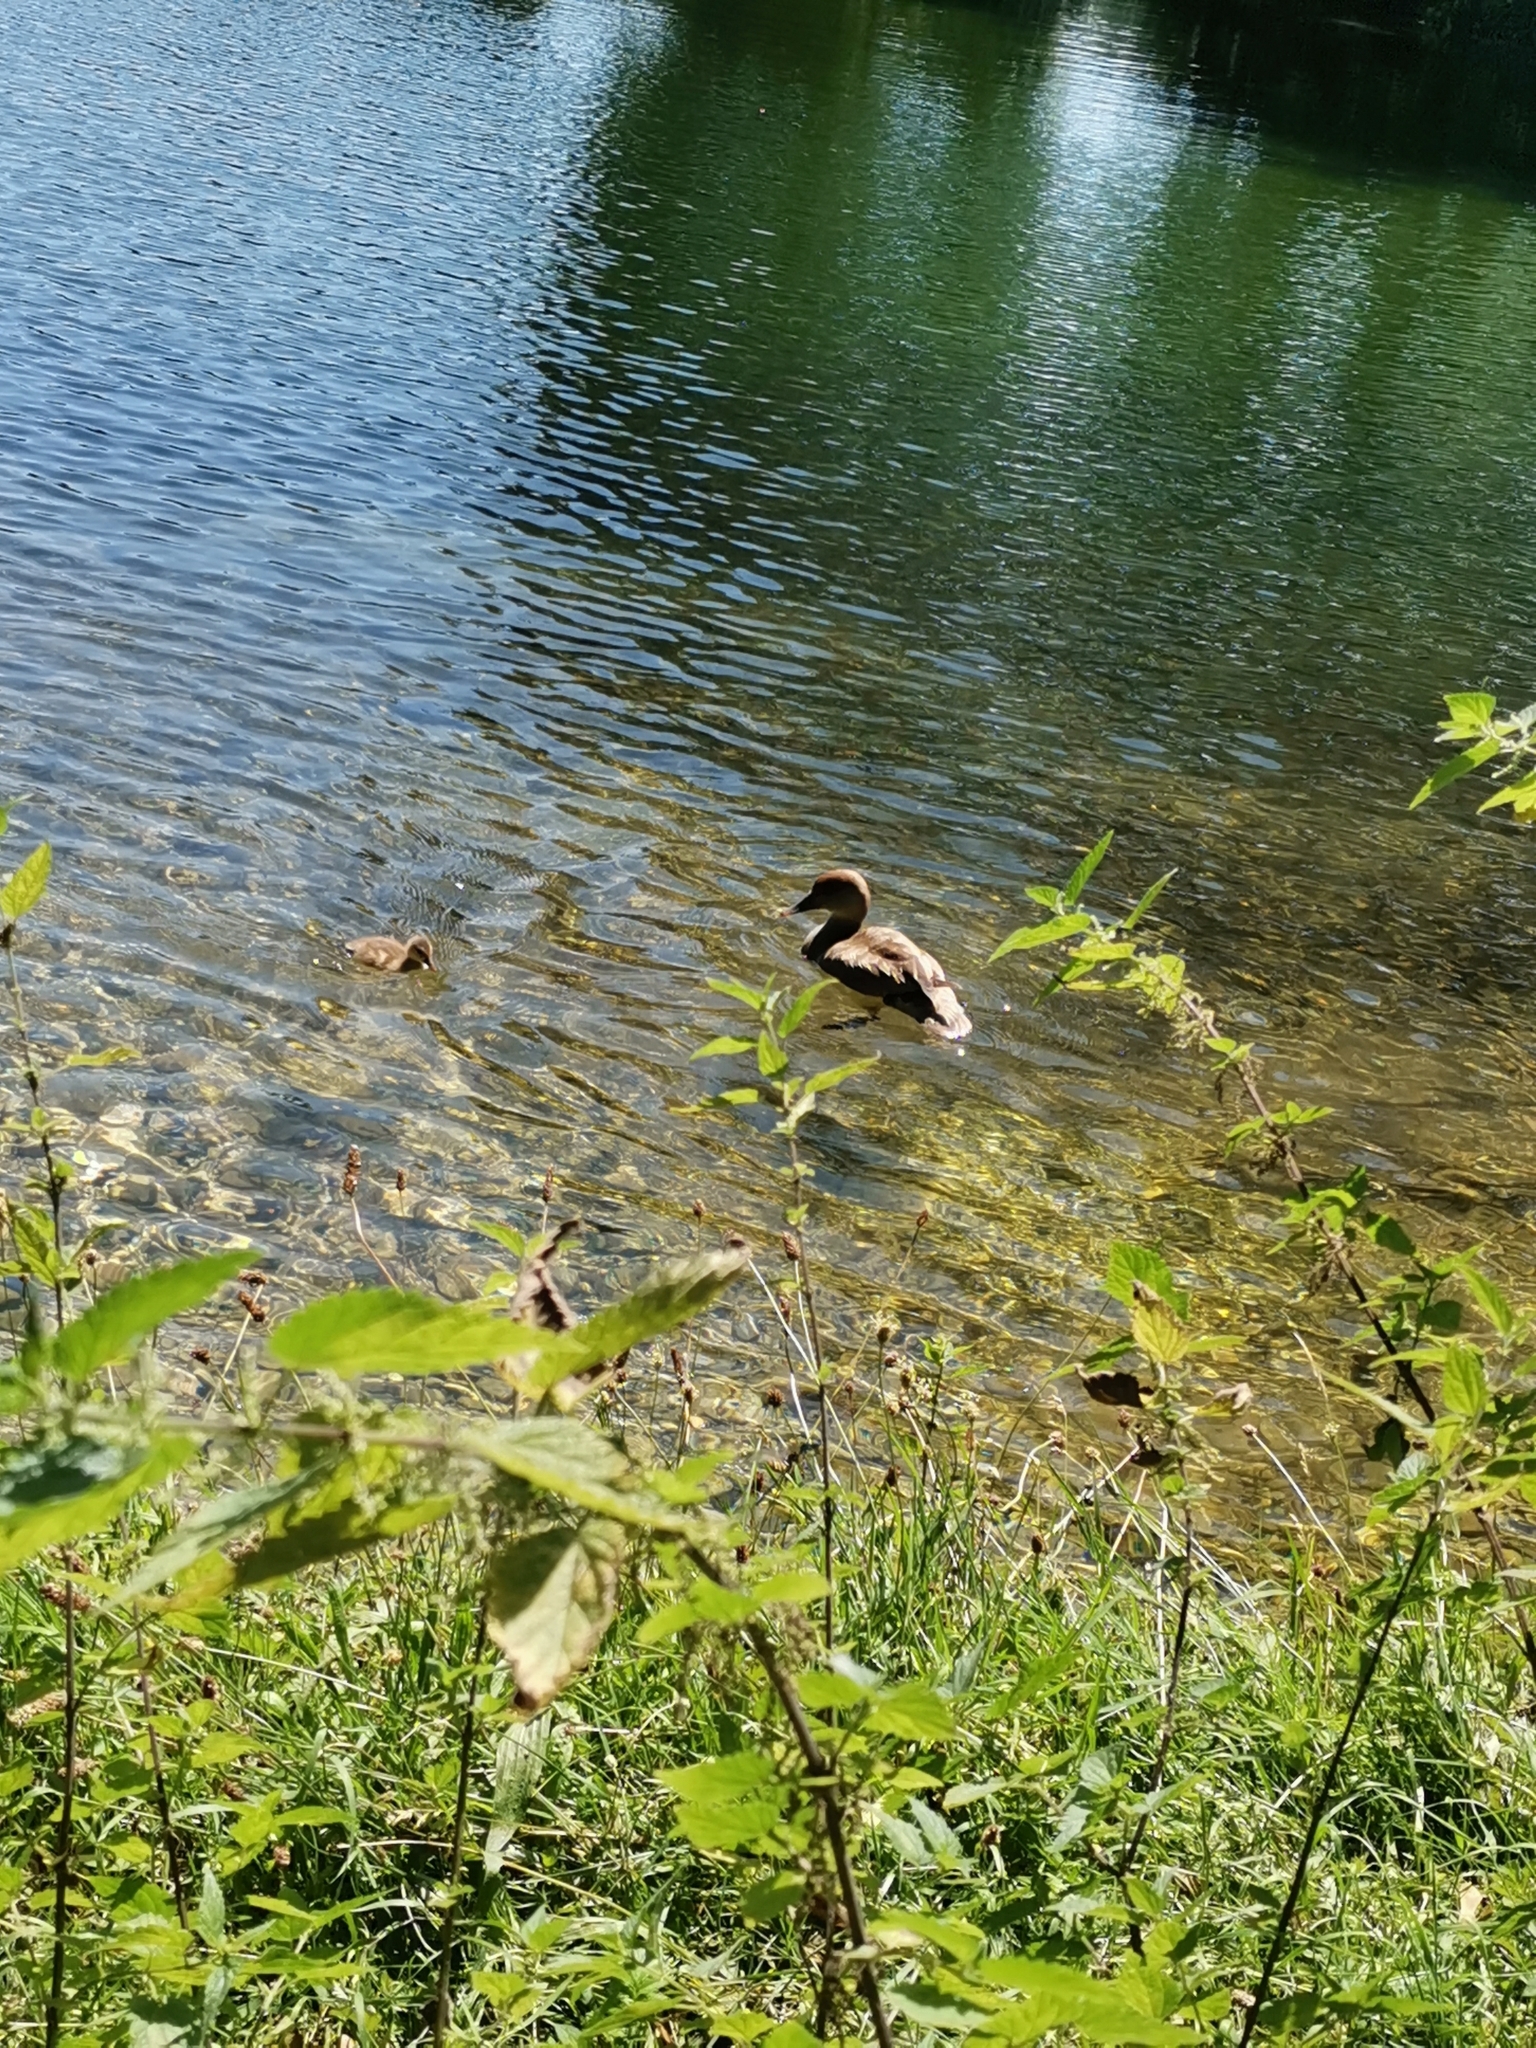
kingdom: Animalia
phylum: Chordata
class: Aves
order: Anseriformes
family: Anatidae
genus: Netta
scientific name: Netta rufina
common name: Red-crested pochard
